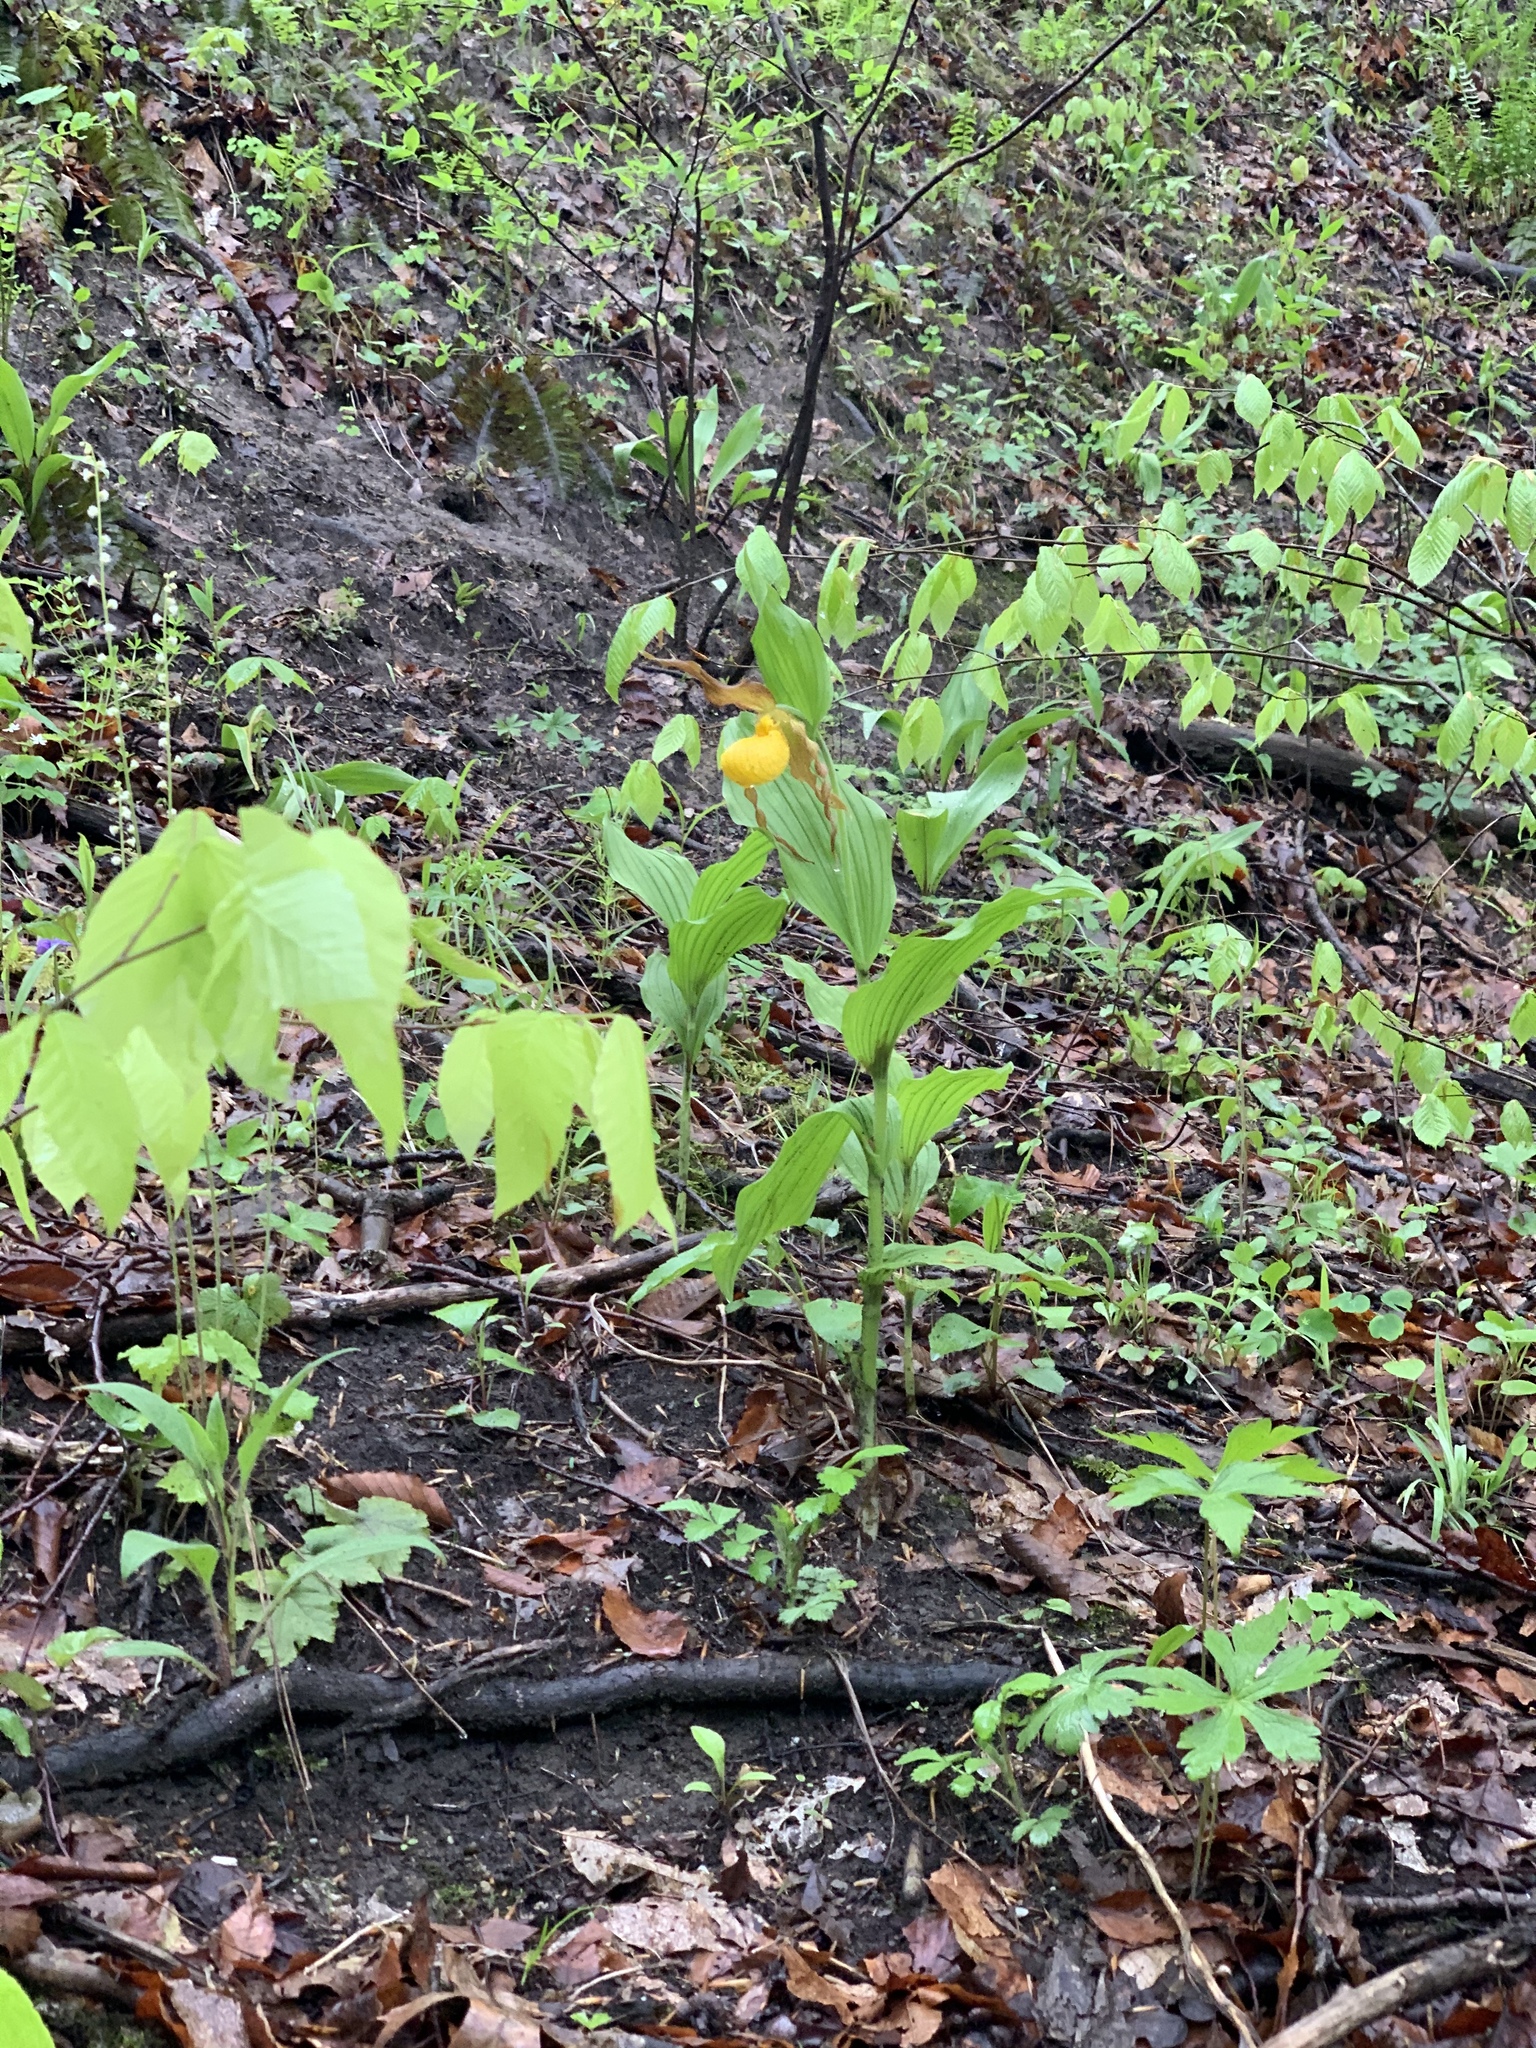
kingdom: Plantae
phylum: Tracheophyta
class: Liliopsida
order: Asparagales
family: Orchidaceae
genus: Cypripedium
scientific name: Cypripedium parviflorum
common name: American yellow lady's-slipper
